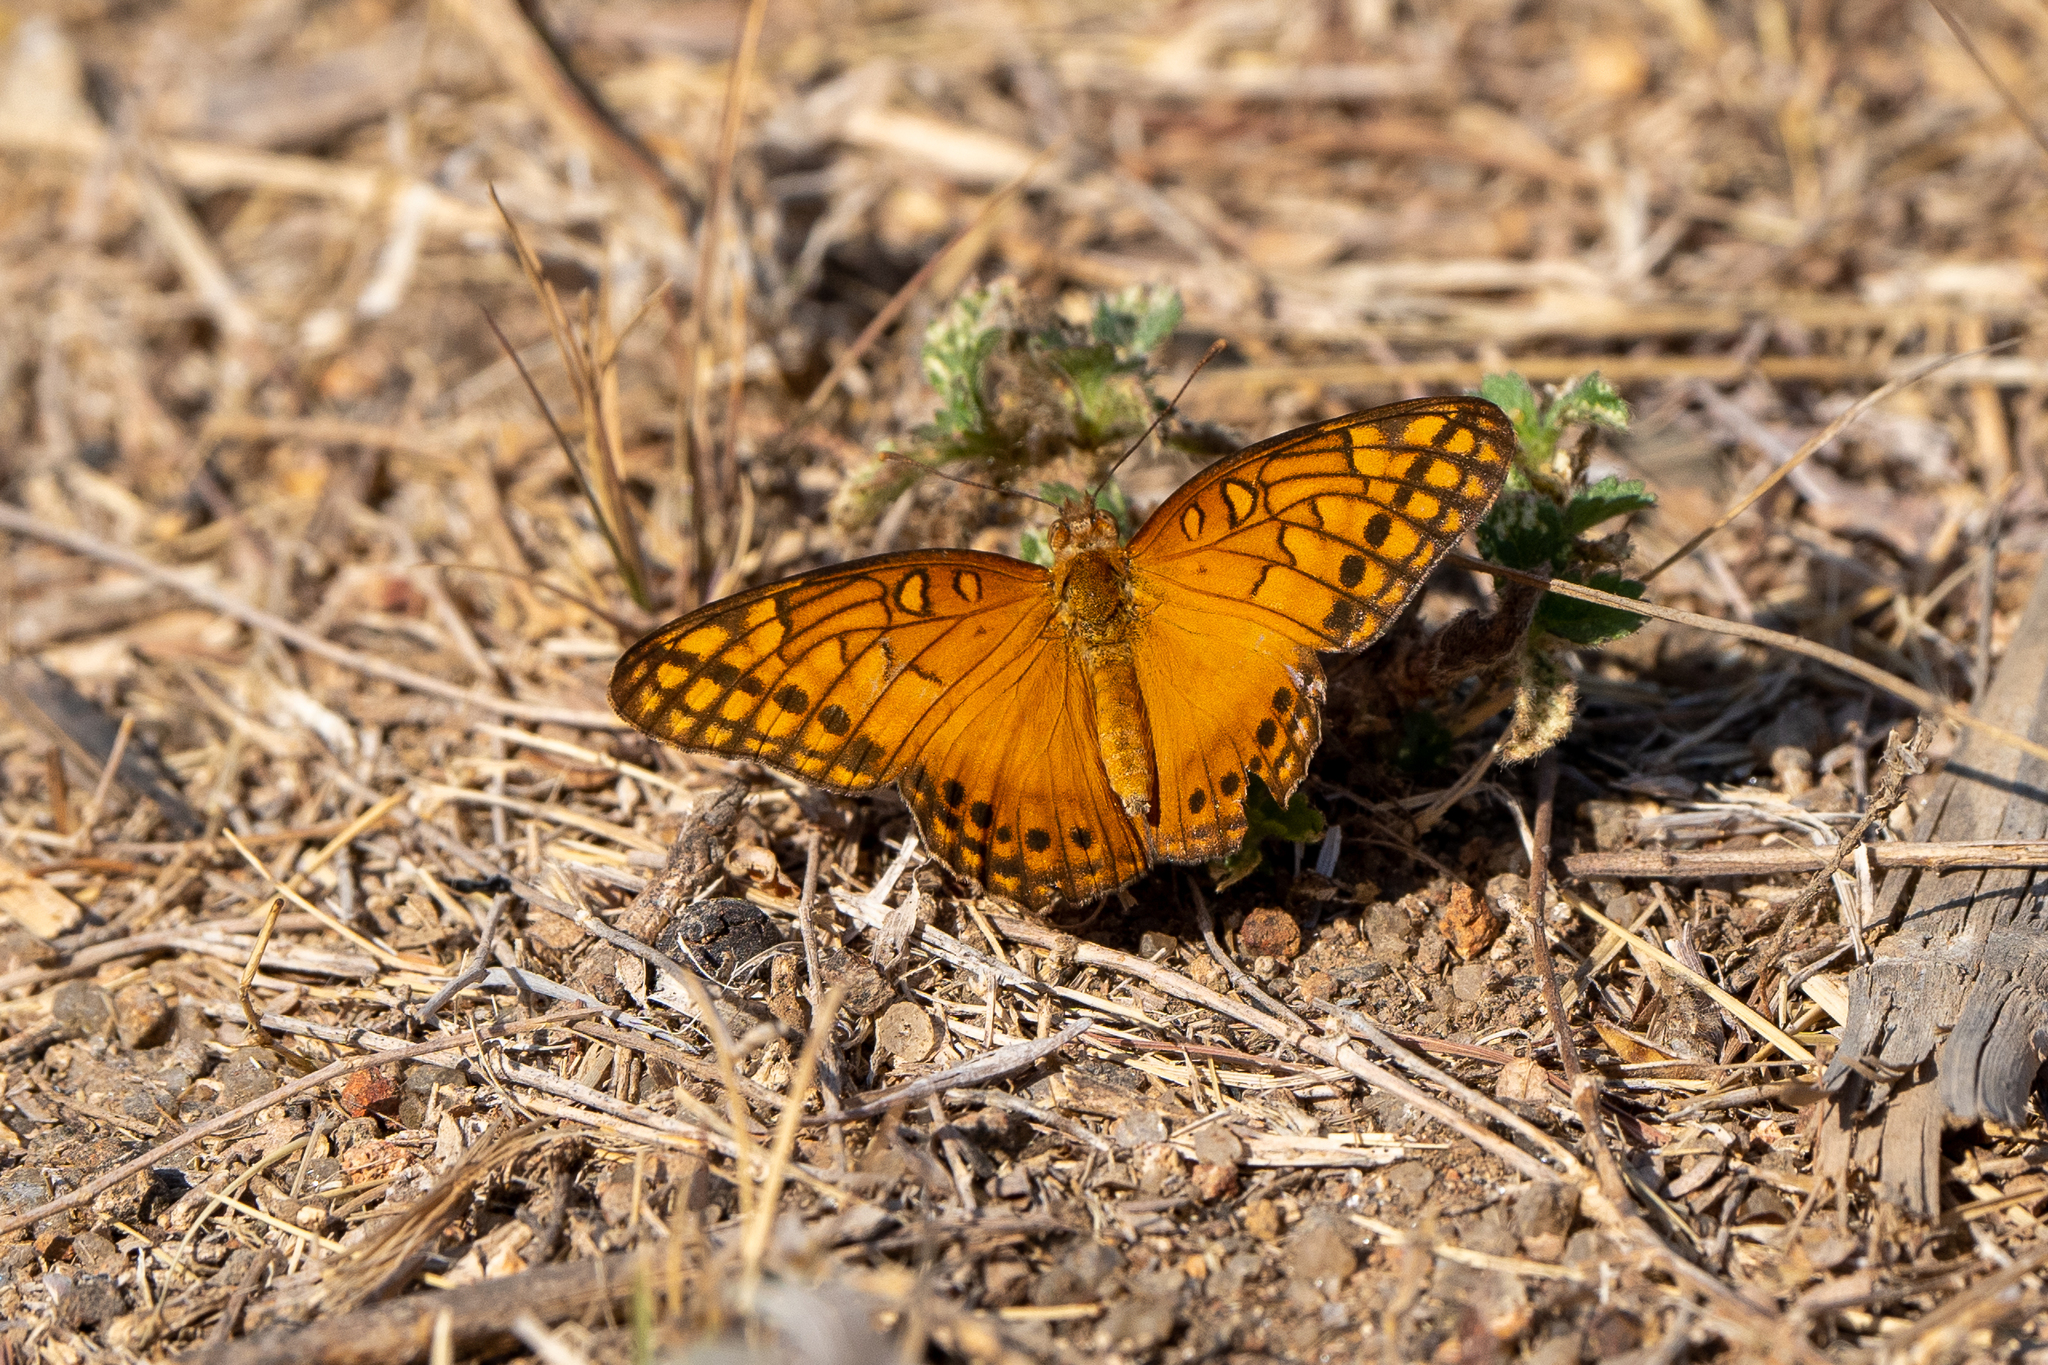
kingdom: Animalia
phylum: Arthropoda
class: Insecta
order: Lepidoptera
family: Nymphalidae
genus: Euptoieta
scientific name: Euptoieta hegesia
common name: Mexican fritillary
